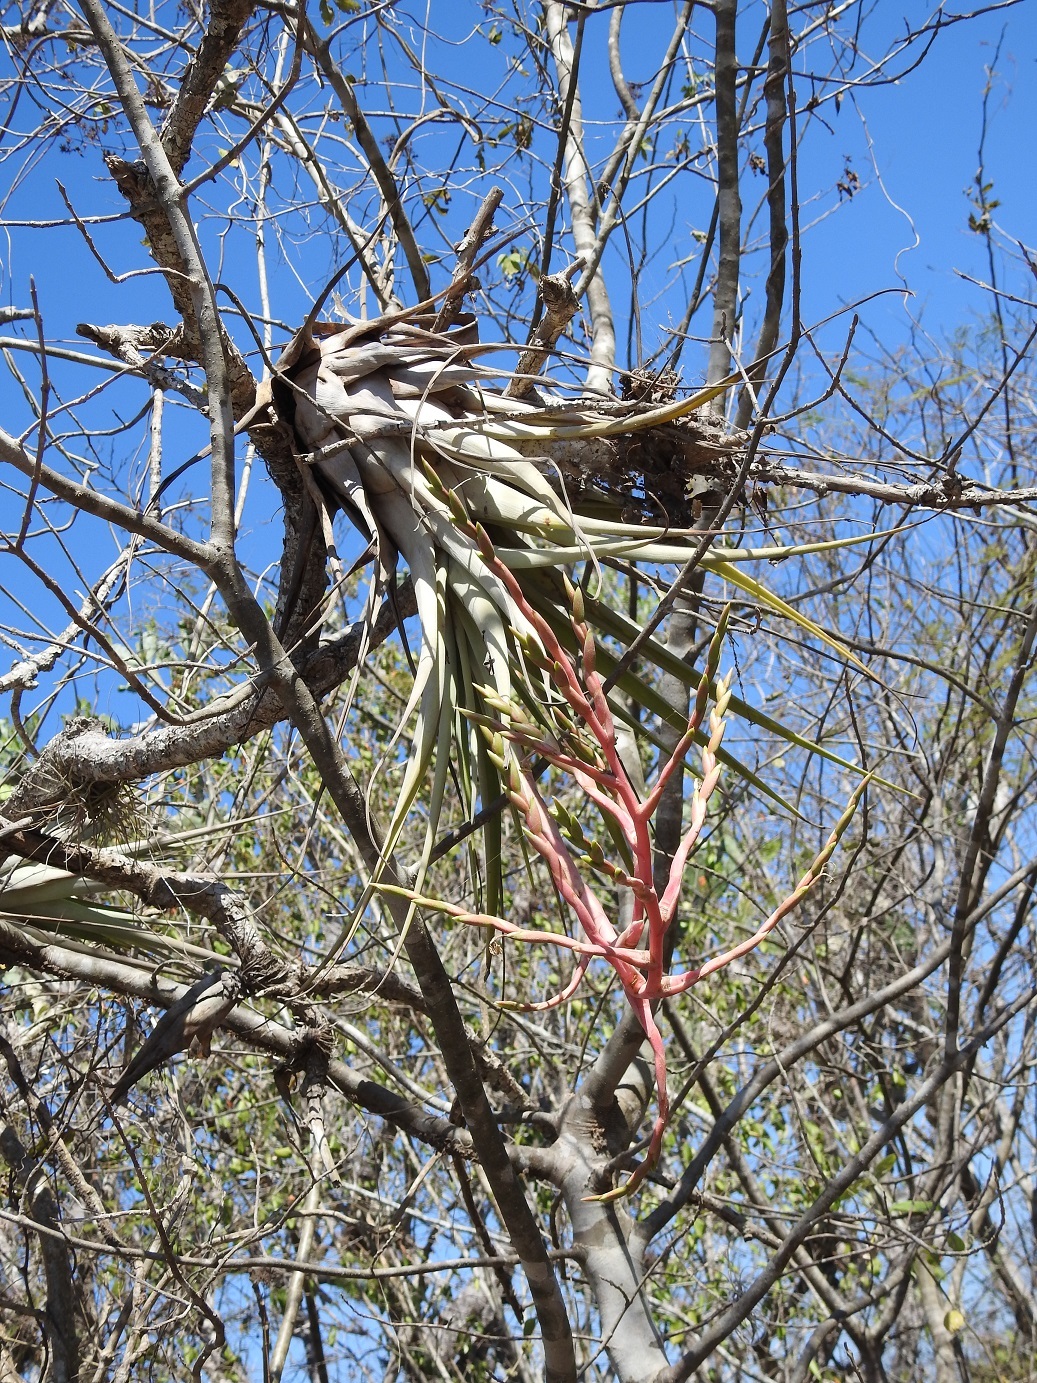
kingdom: Plantae
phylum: Tracheophyta
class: Liliopsida
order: Poales
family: Bromeliaceae
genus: Tillandsia
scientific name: Tillandsia elusiva
